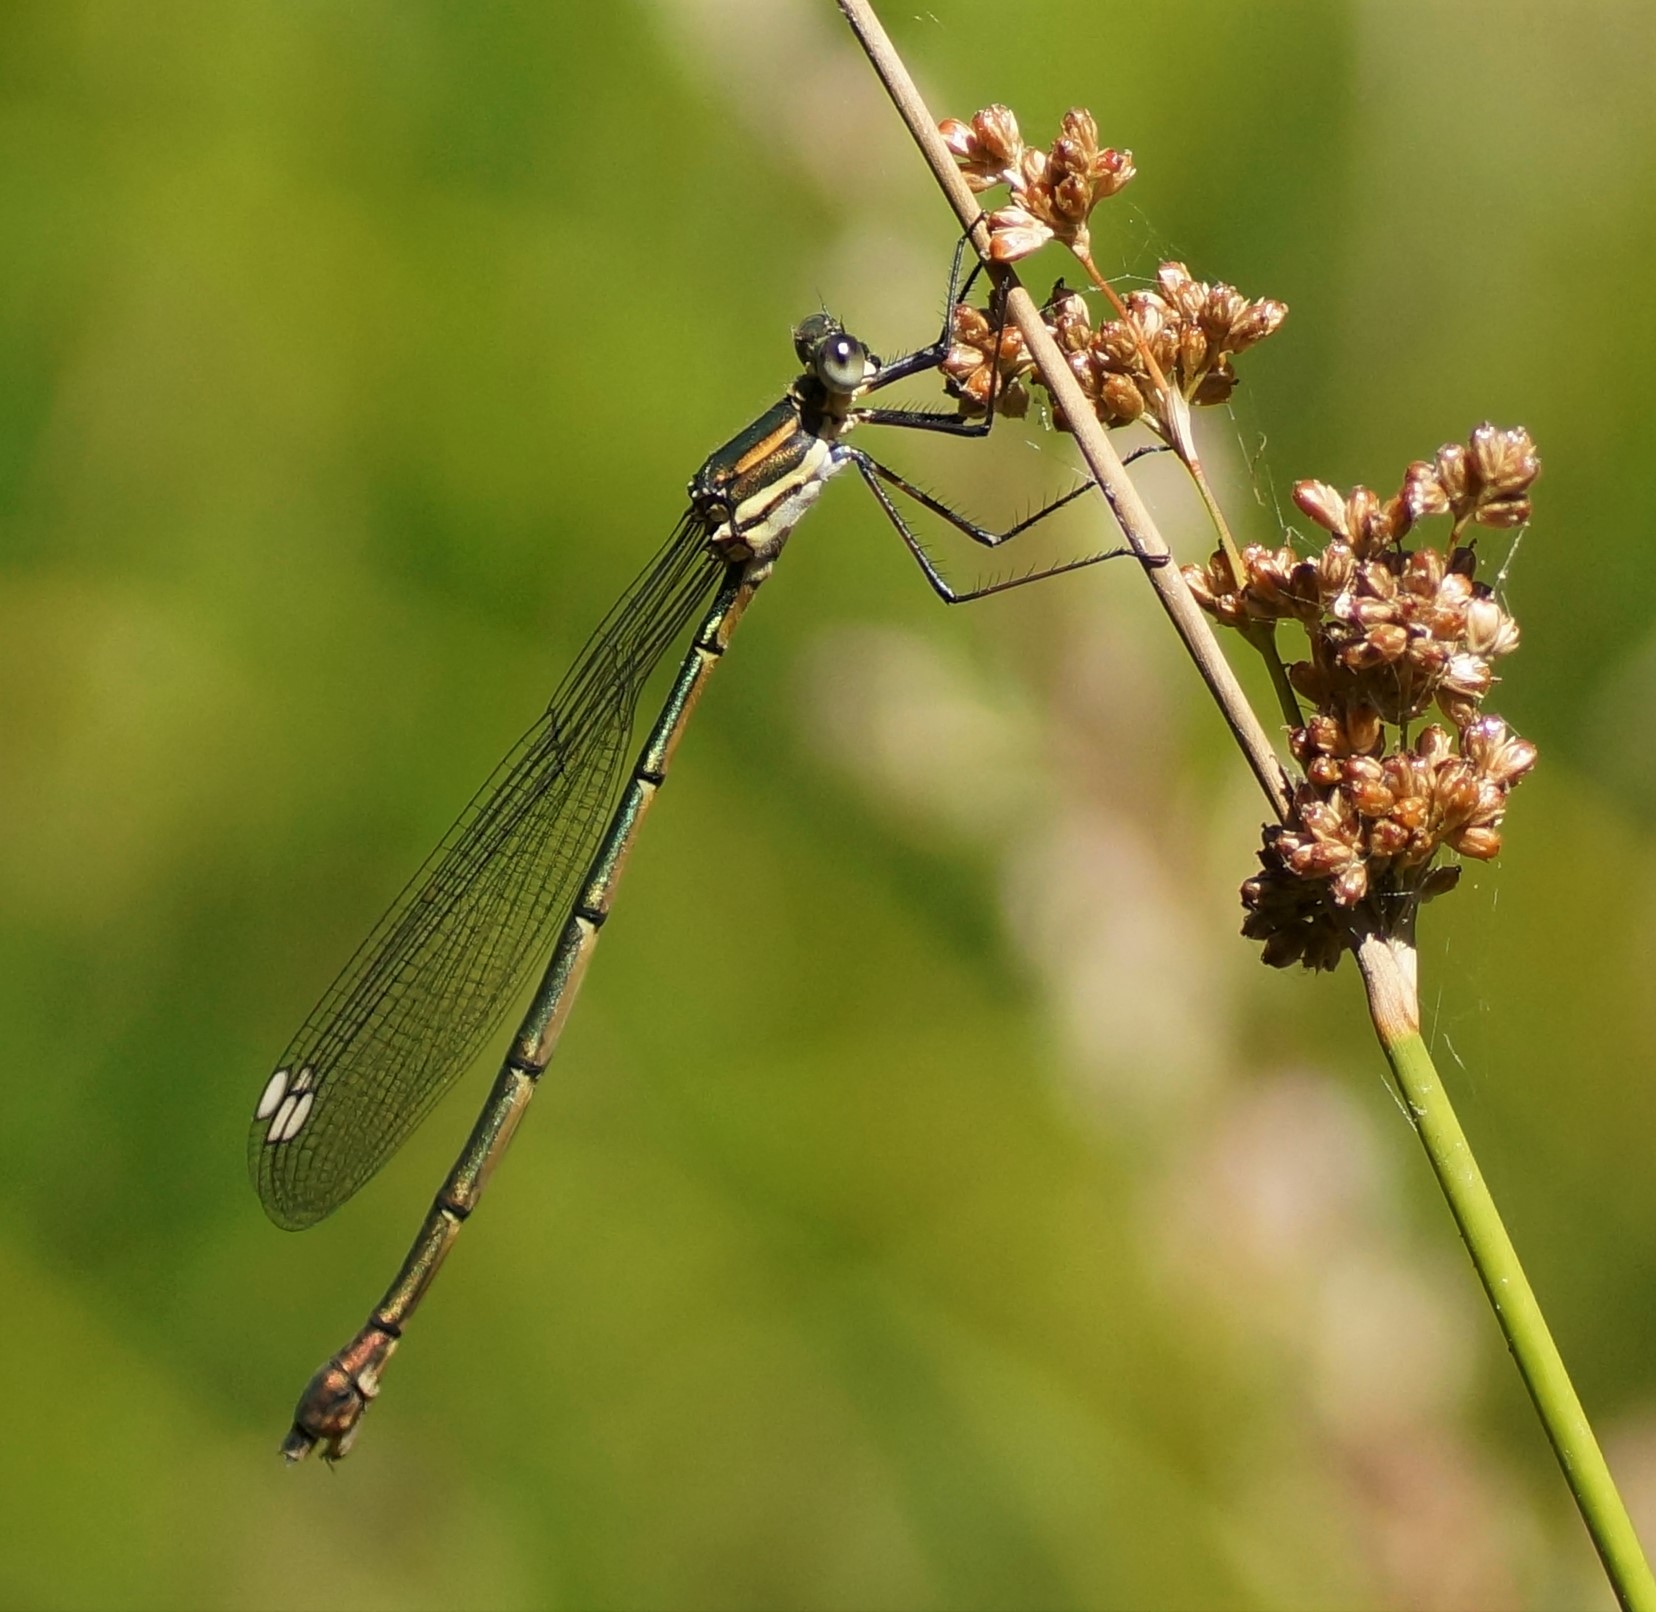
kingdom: Animalia
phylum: Arthropoda
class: Insecta
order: Odonata
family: Synlestidae
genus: Synlestes
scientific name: Synlestes weyersii
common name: Bronze needle
